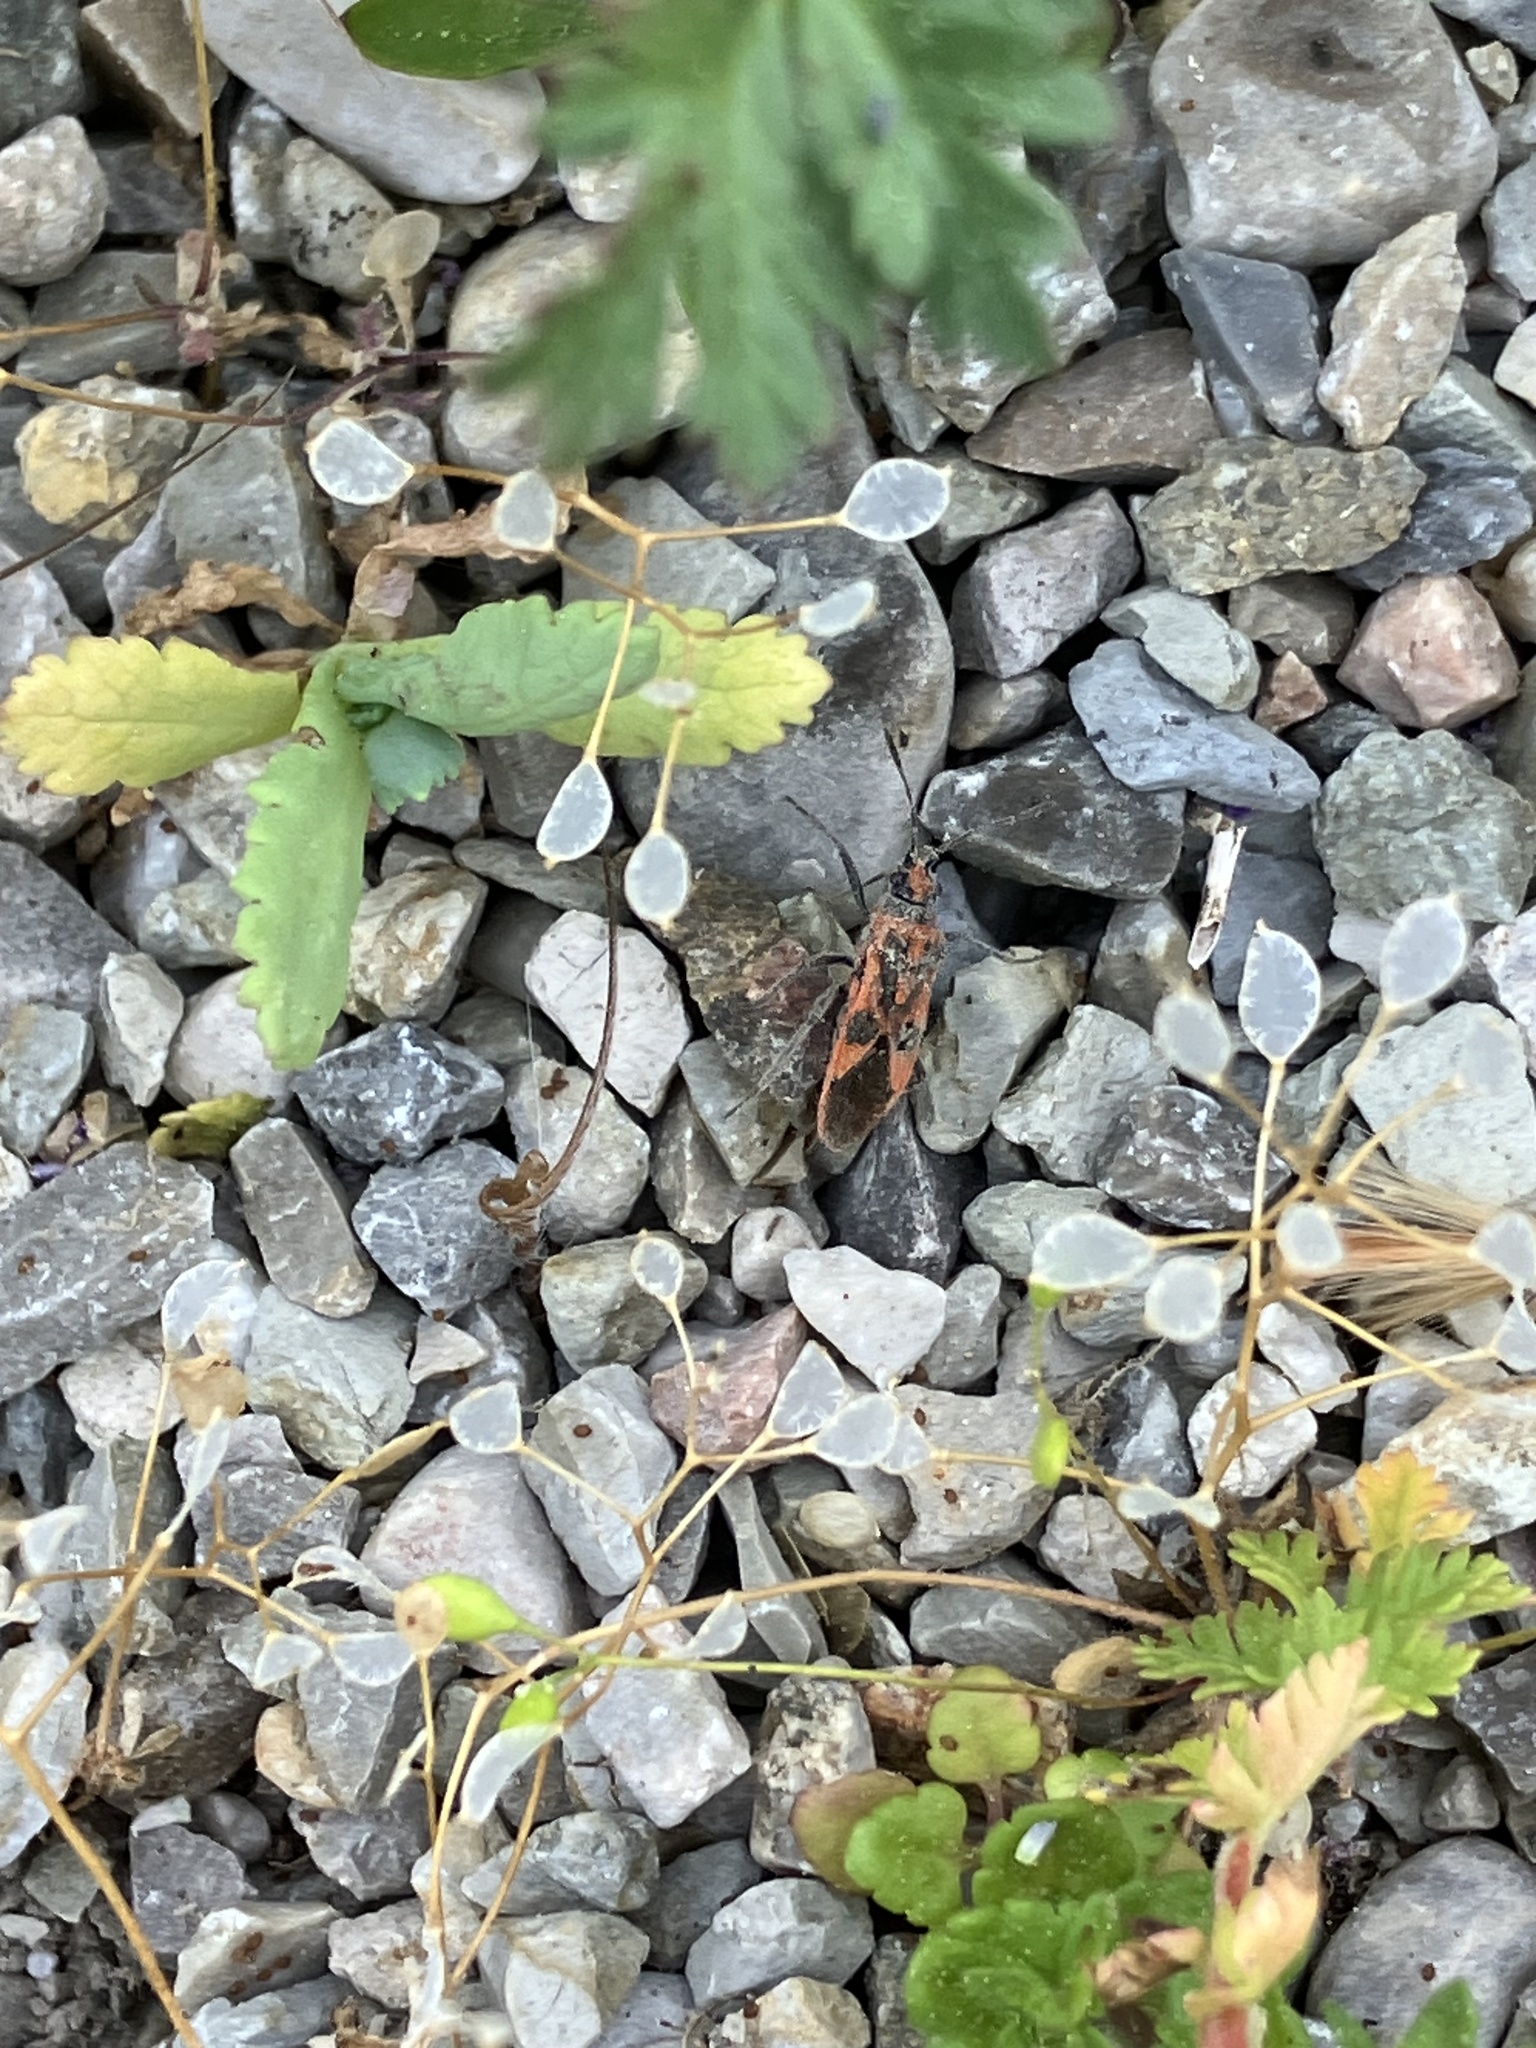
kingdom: Animalia
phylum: Arthropoda
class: Insecta
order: Hemiptera
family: Rhopalidae
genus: Corizus
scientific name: Corizus hyoscyami
